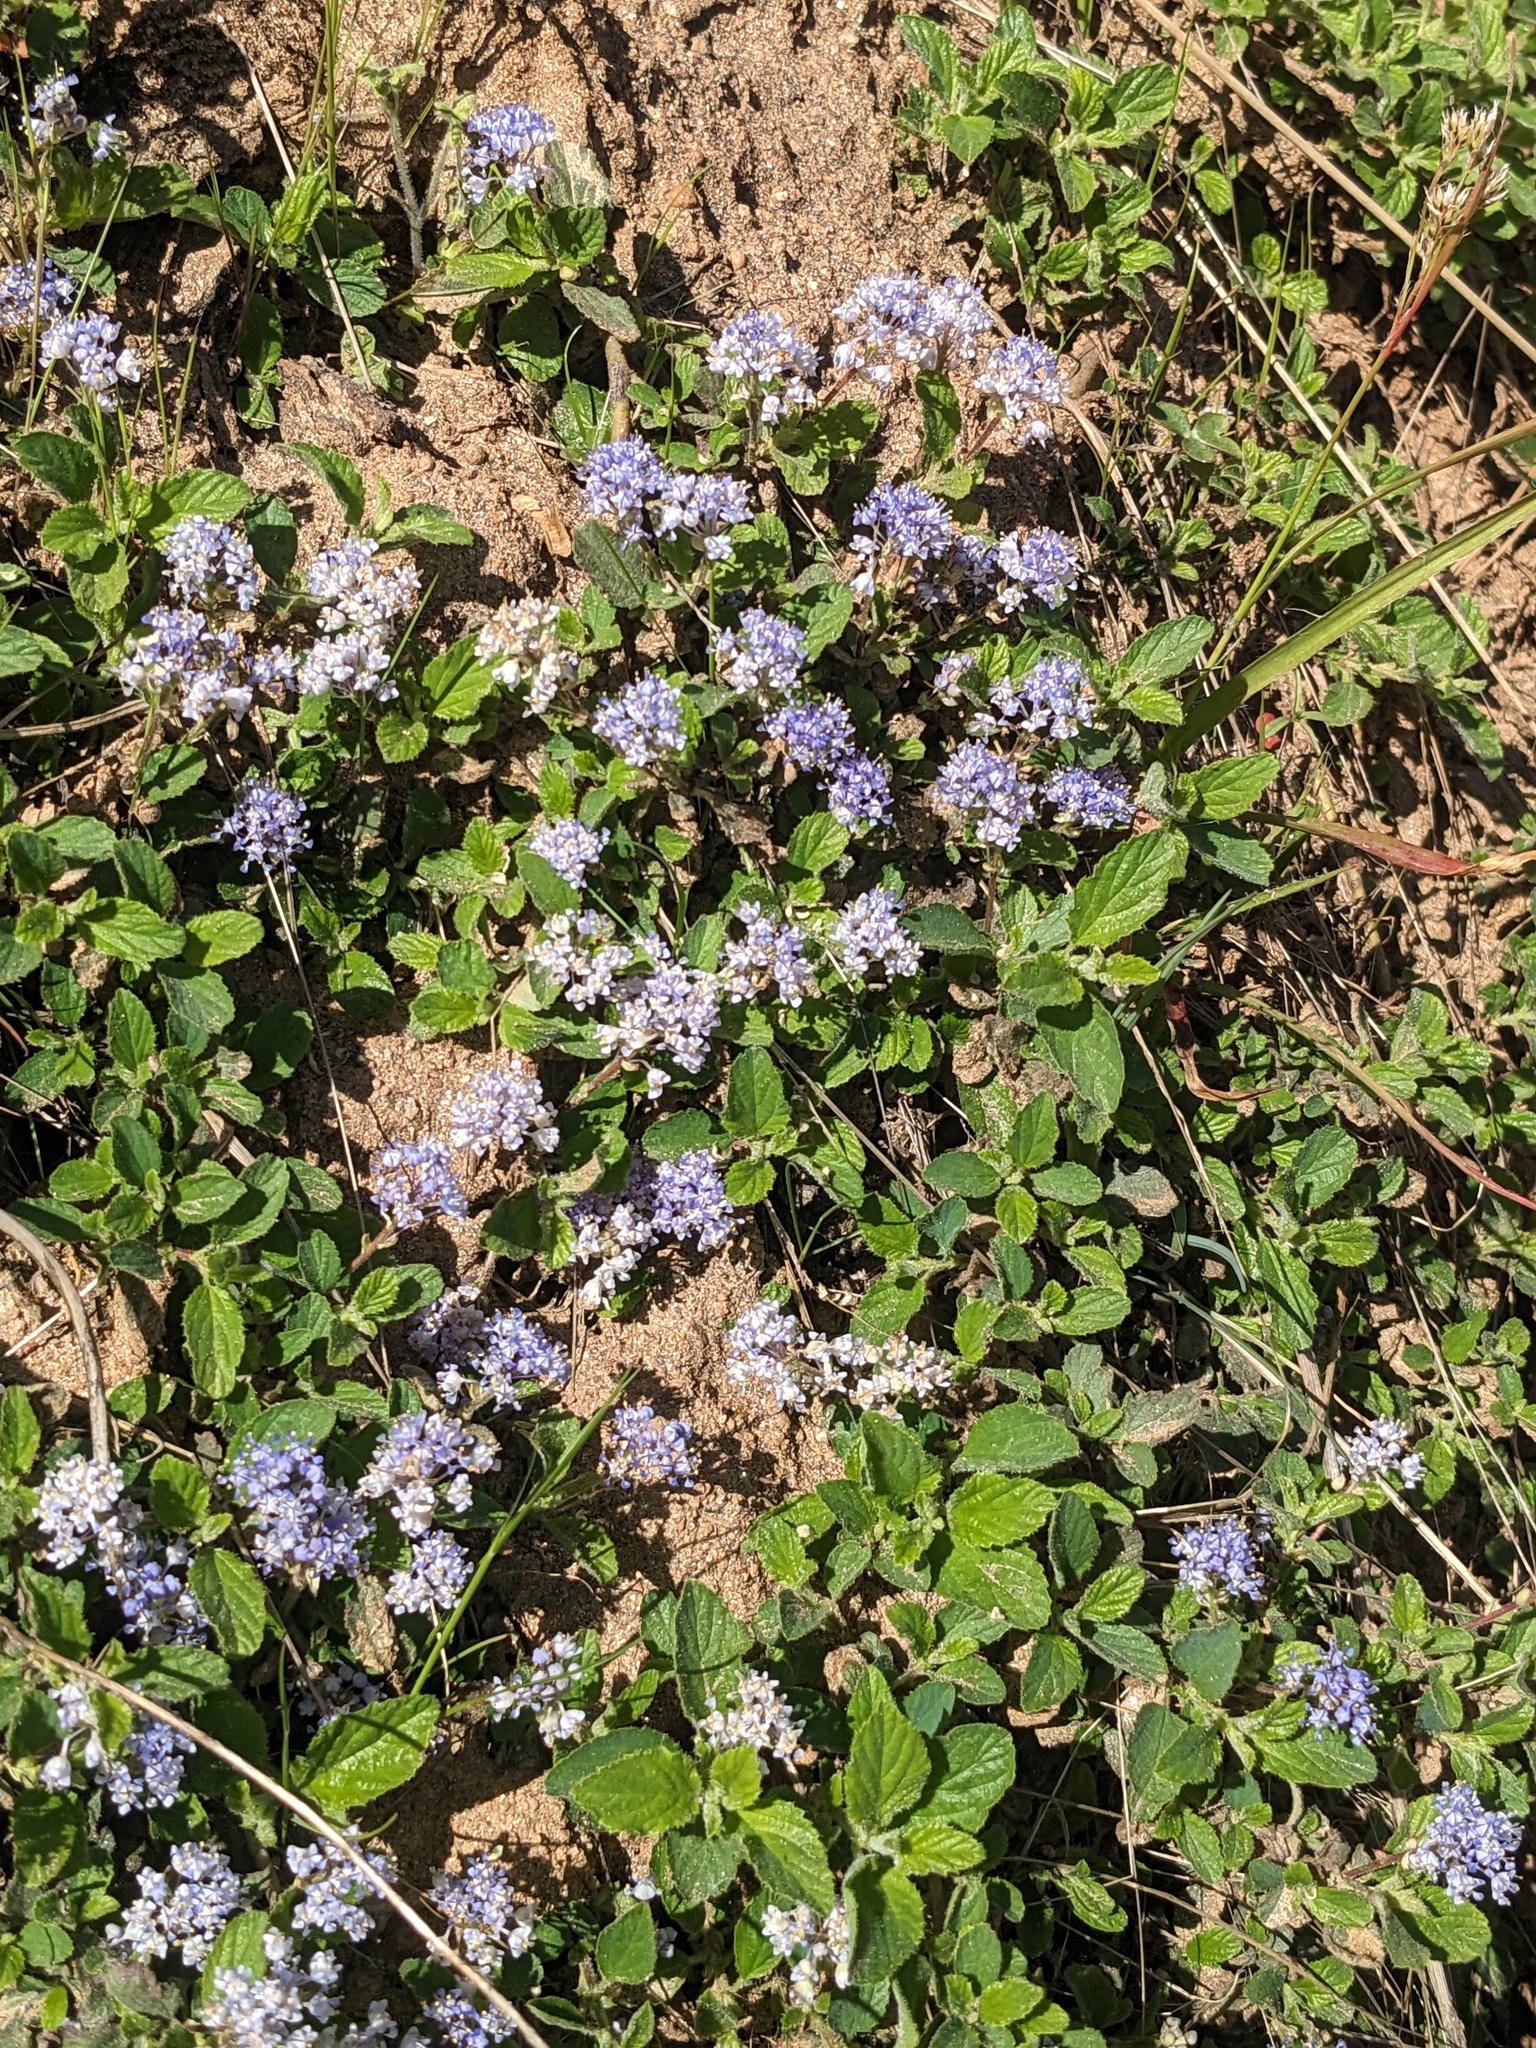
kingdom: Plantae
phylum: Tracheophyta
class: Magnoliopsida
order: Rosales
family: Rhamnaceae
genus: Ceanothus
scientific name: Ceanothus diversifolius
